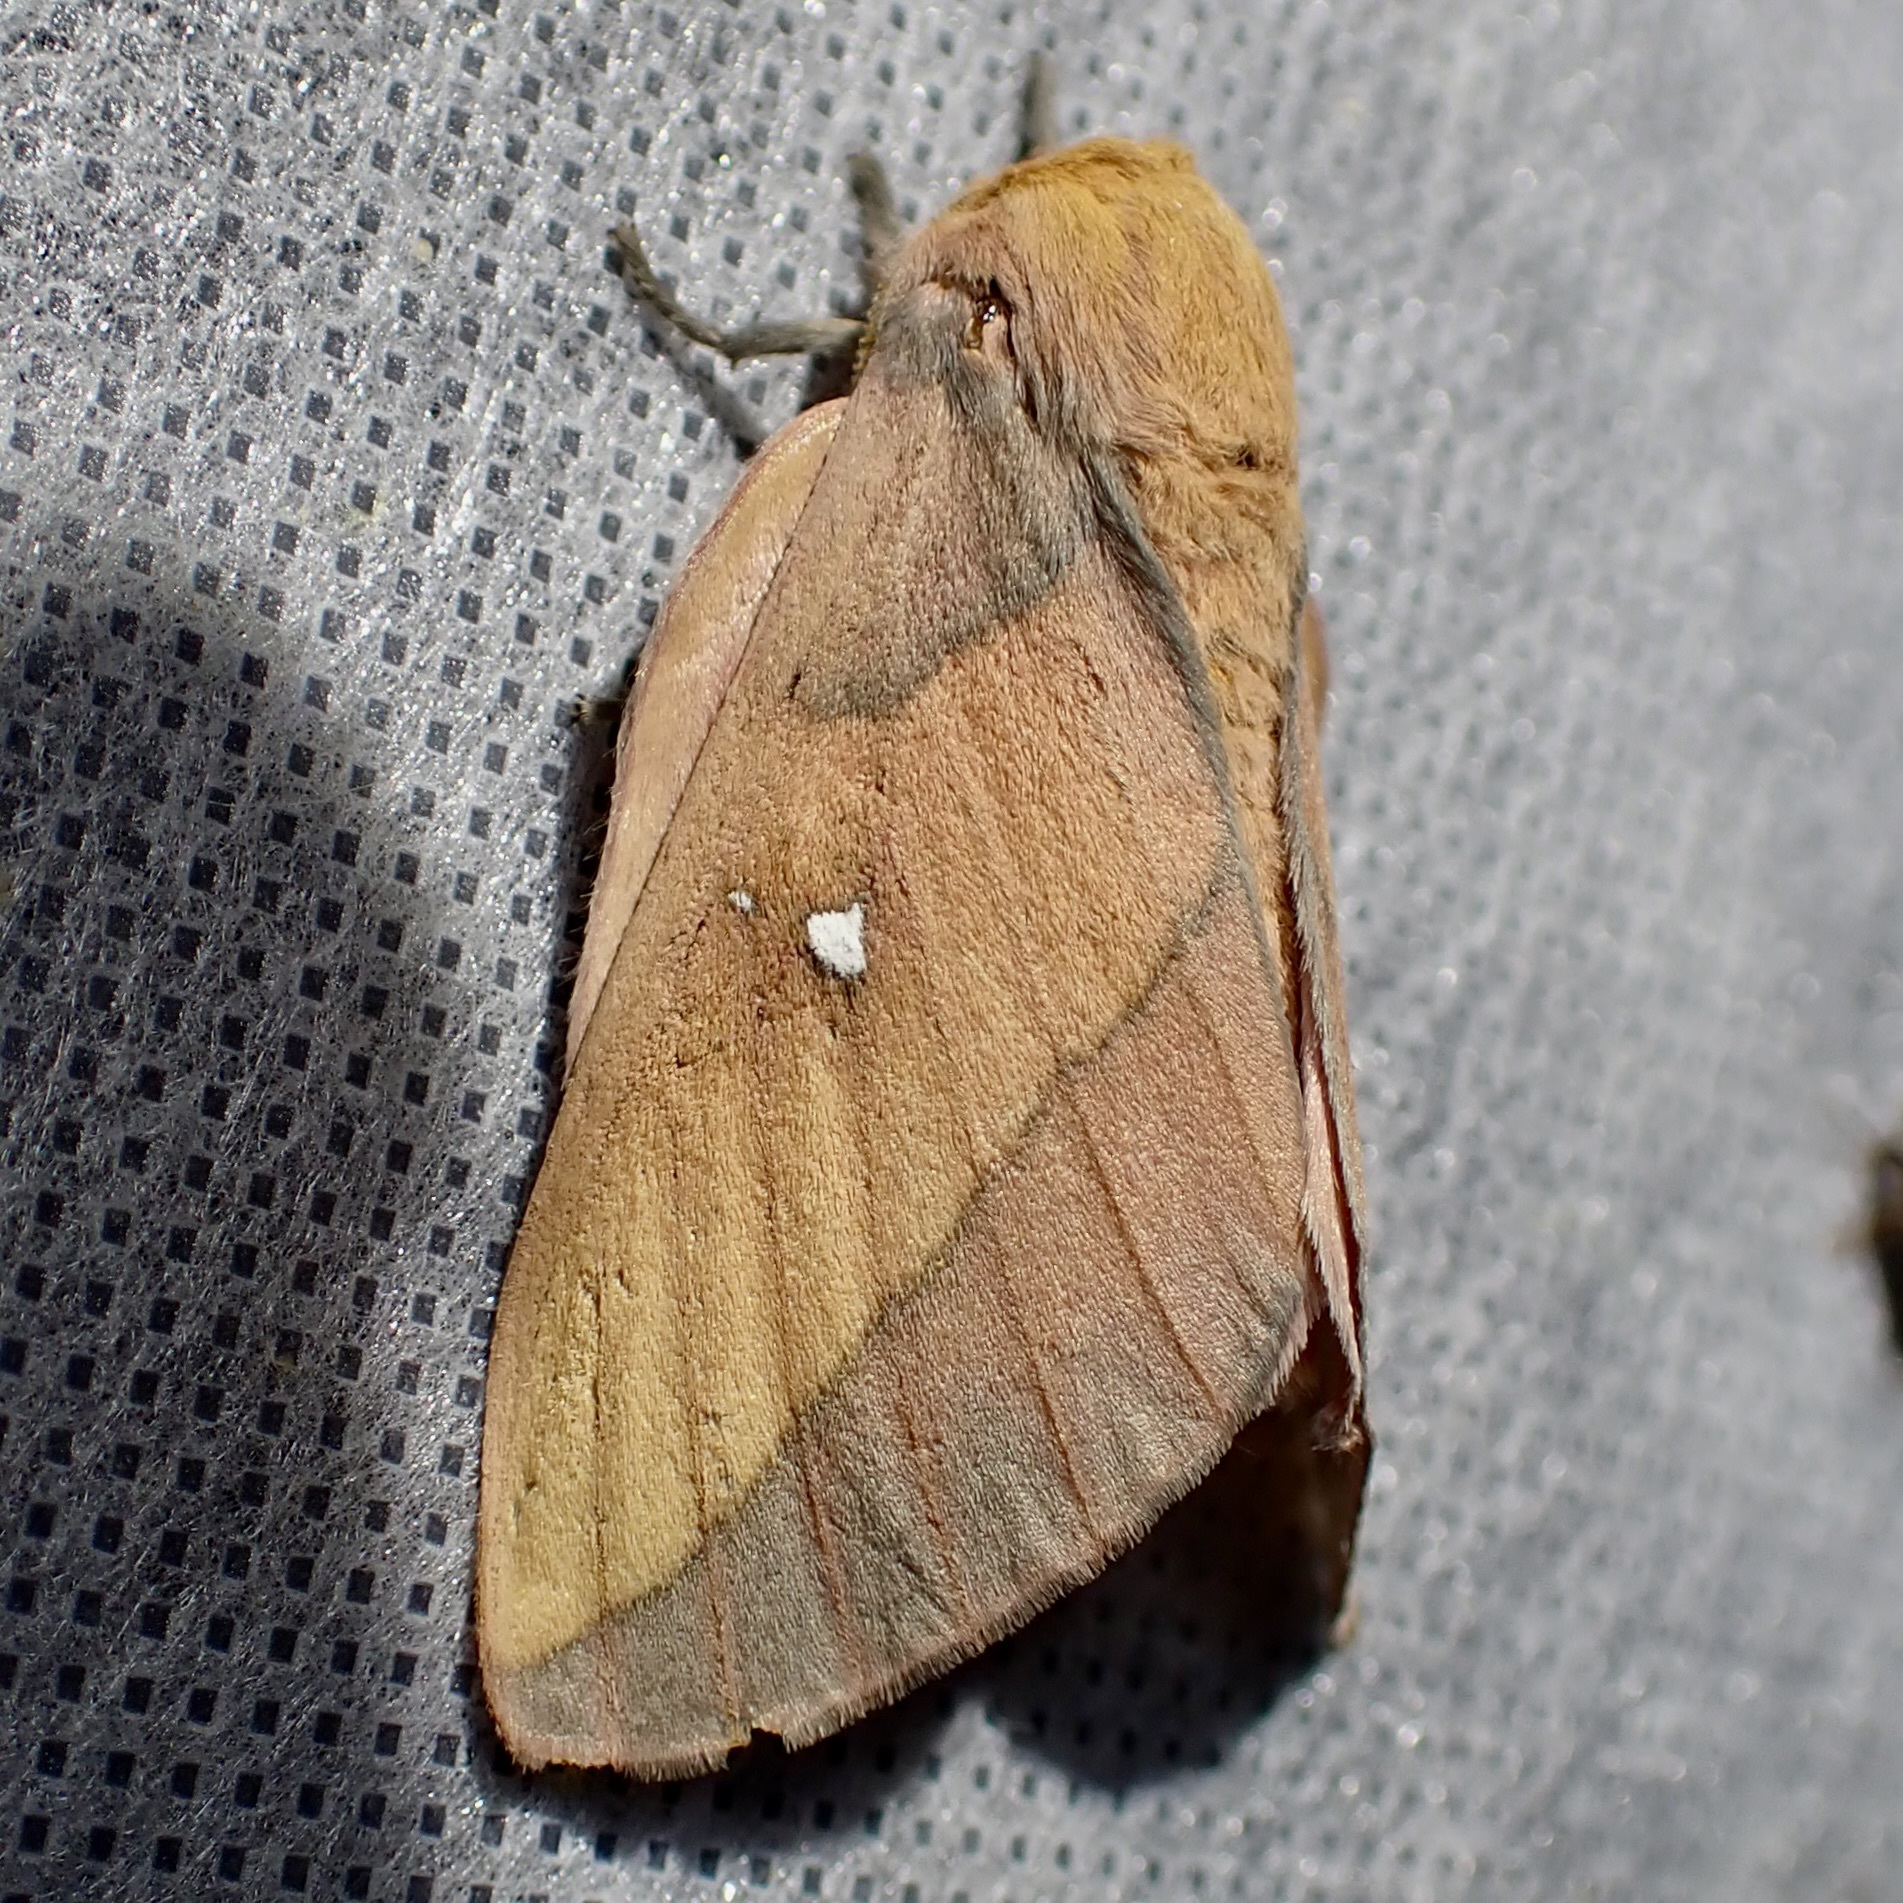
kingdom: Animalia
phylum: Arthropoda
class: Insecta
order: Lepidoptera
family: Saturniidae
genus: Syssphinx
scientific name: Syssphinx montana
